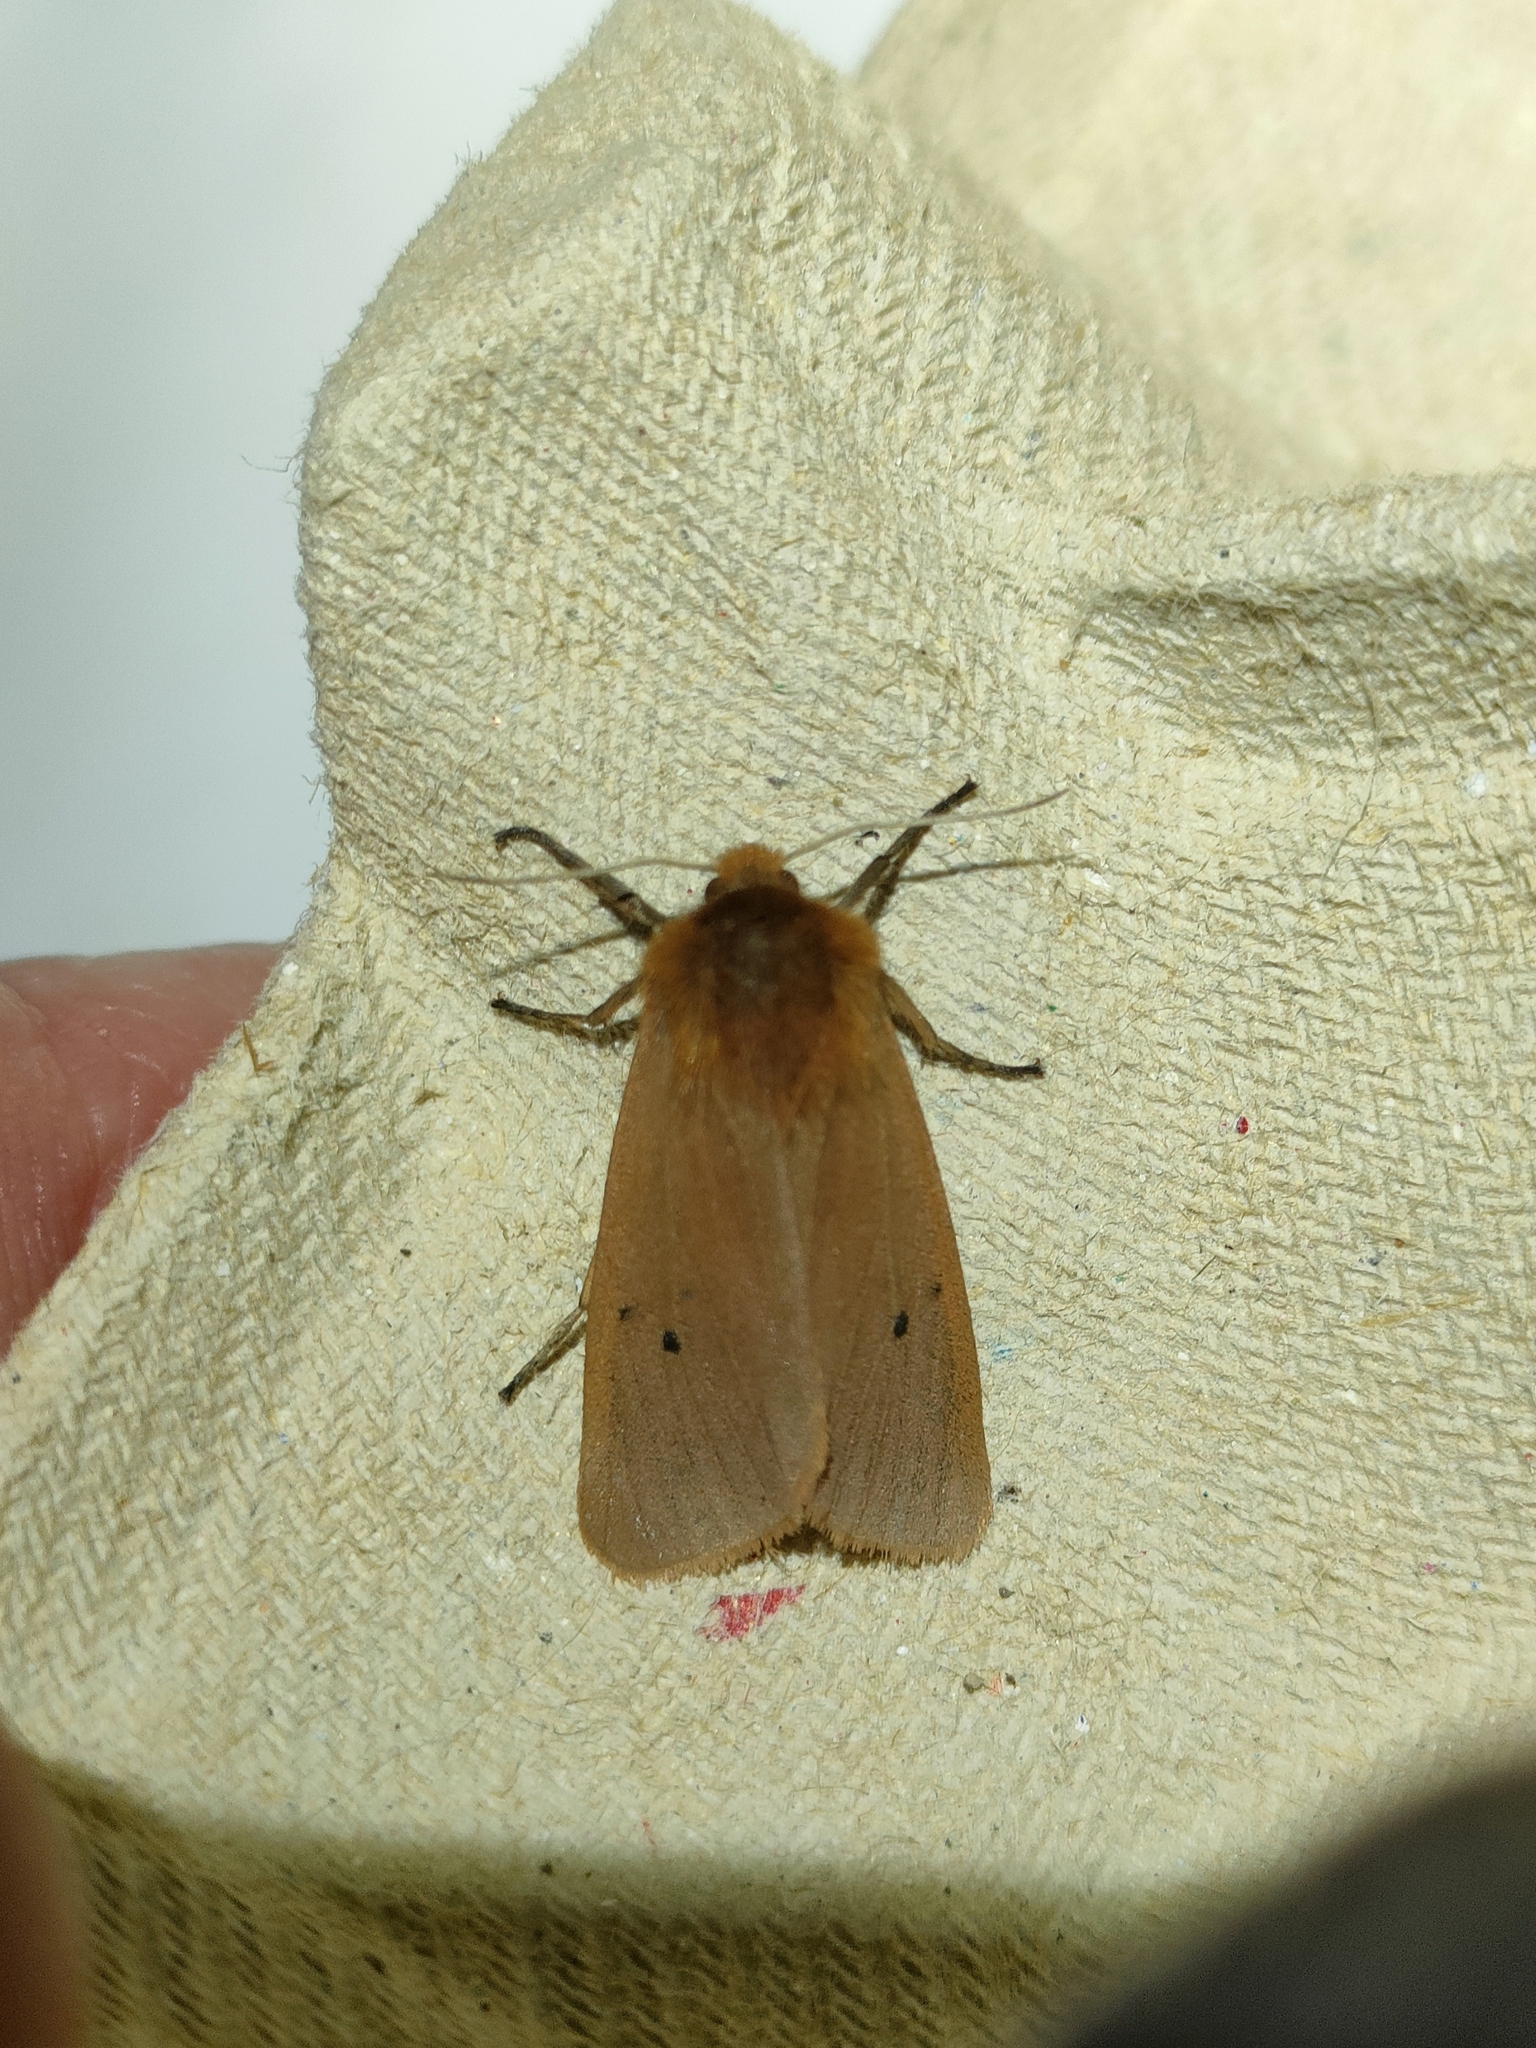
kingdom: Animalia
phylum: Arthropoda
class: Insecta
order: Lepidoptera
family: Erebidae
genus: Phragmatobia
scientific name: Phragmatobia fuliginosa
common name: Ruby tiger
